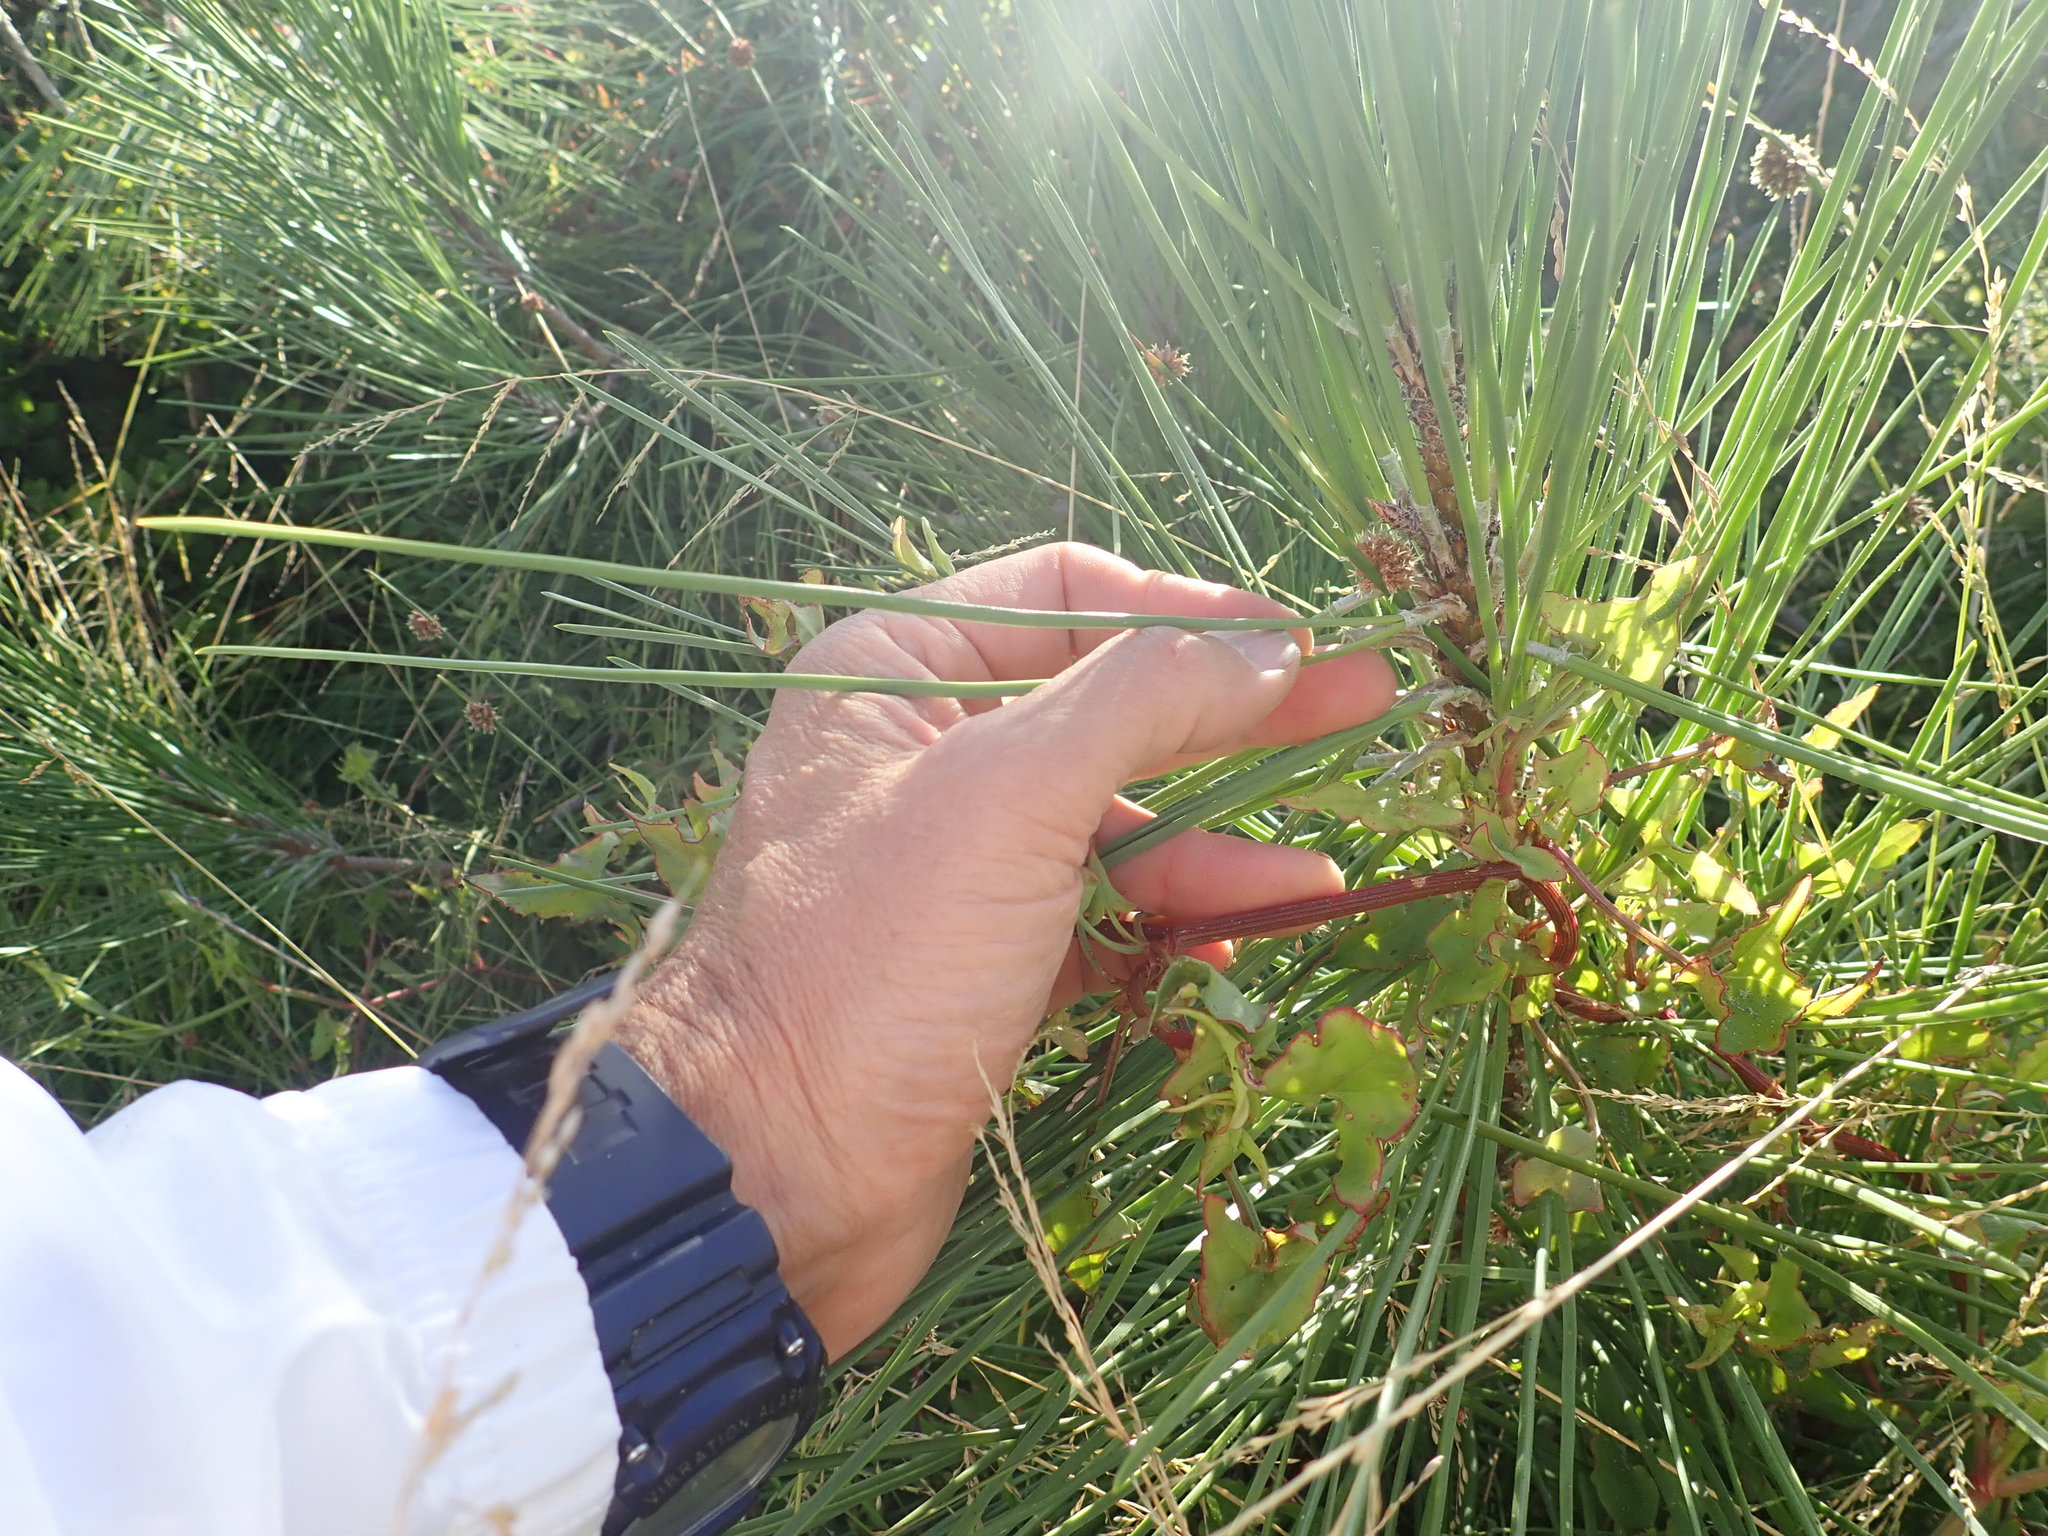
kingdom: Plantae
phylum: Tracheophyta
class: Pinopsida
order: Pinales
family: Pinaceae
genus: Pinus
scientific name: Pinus pinaster
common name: Maritime pine
